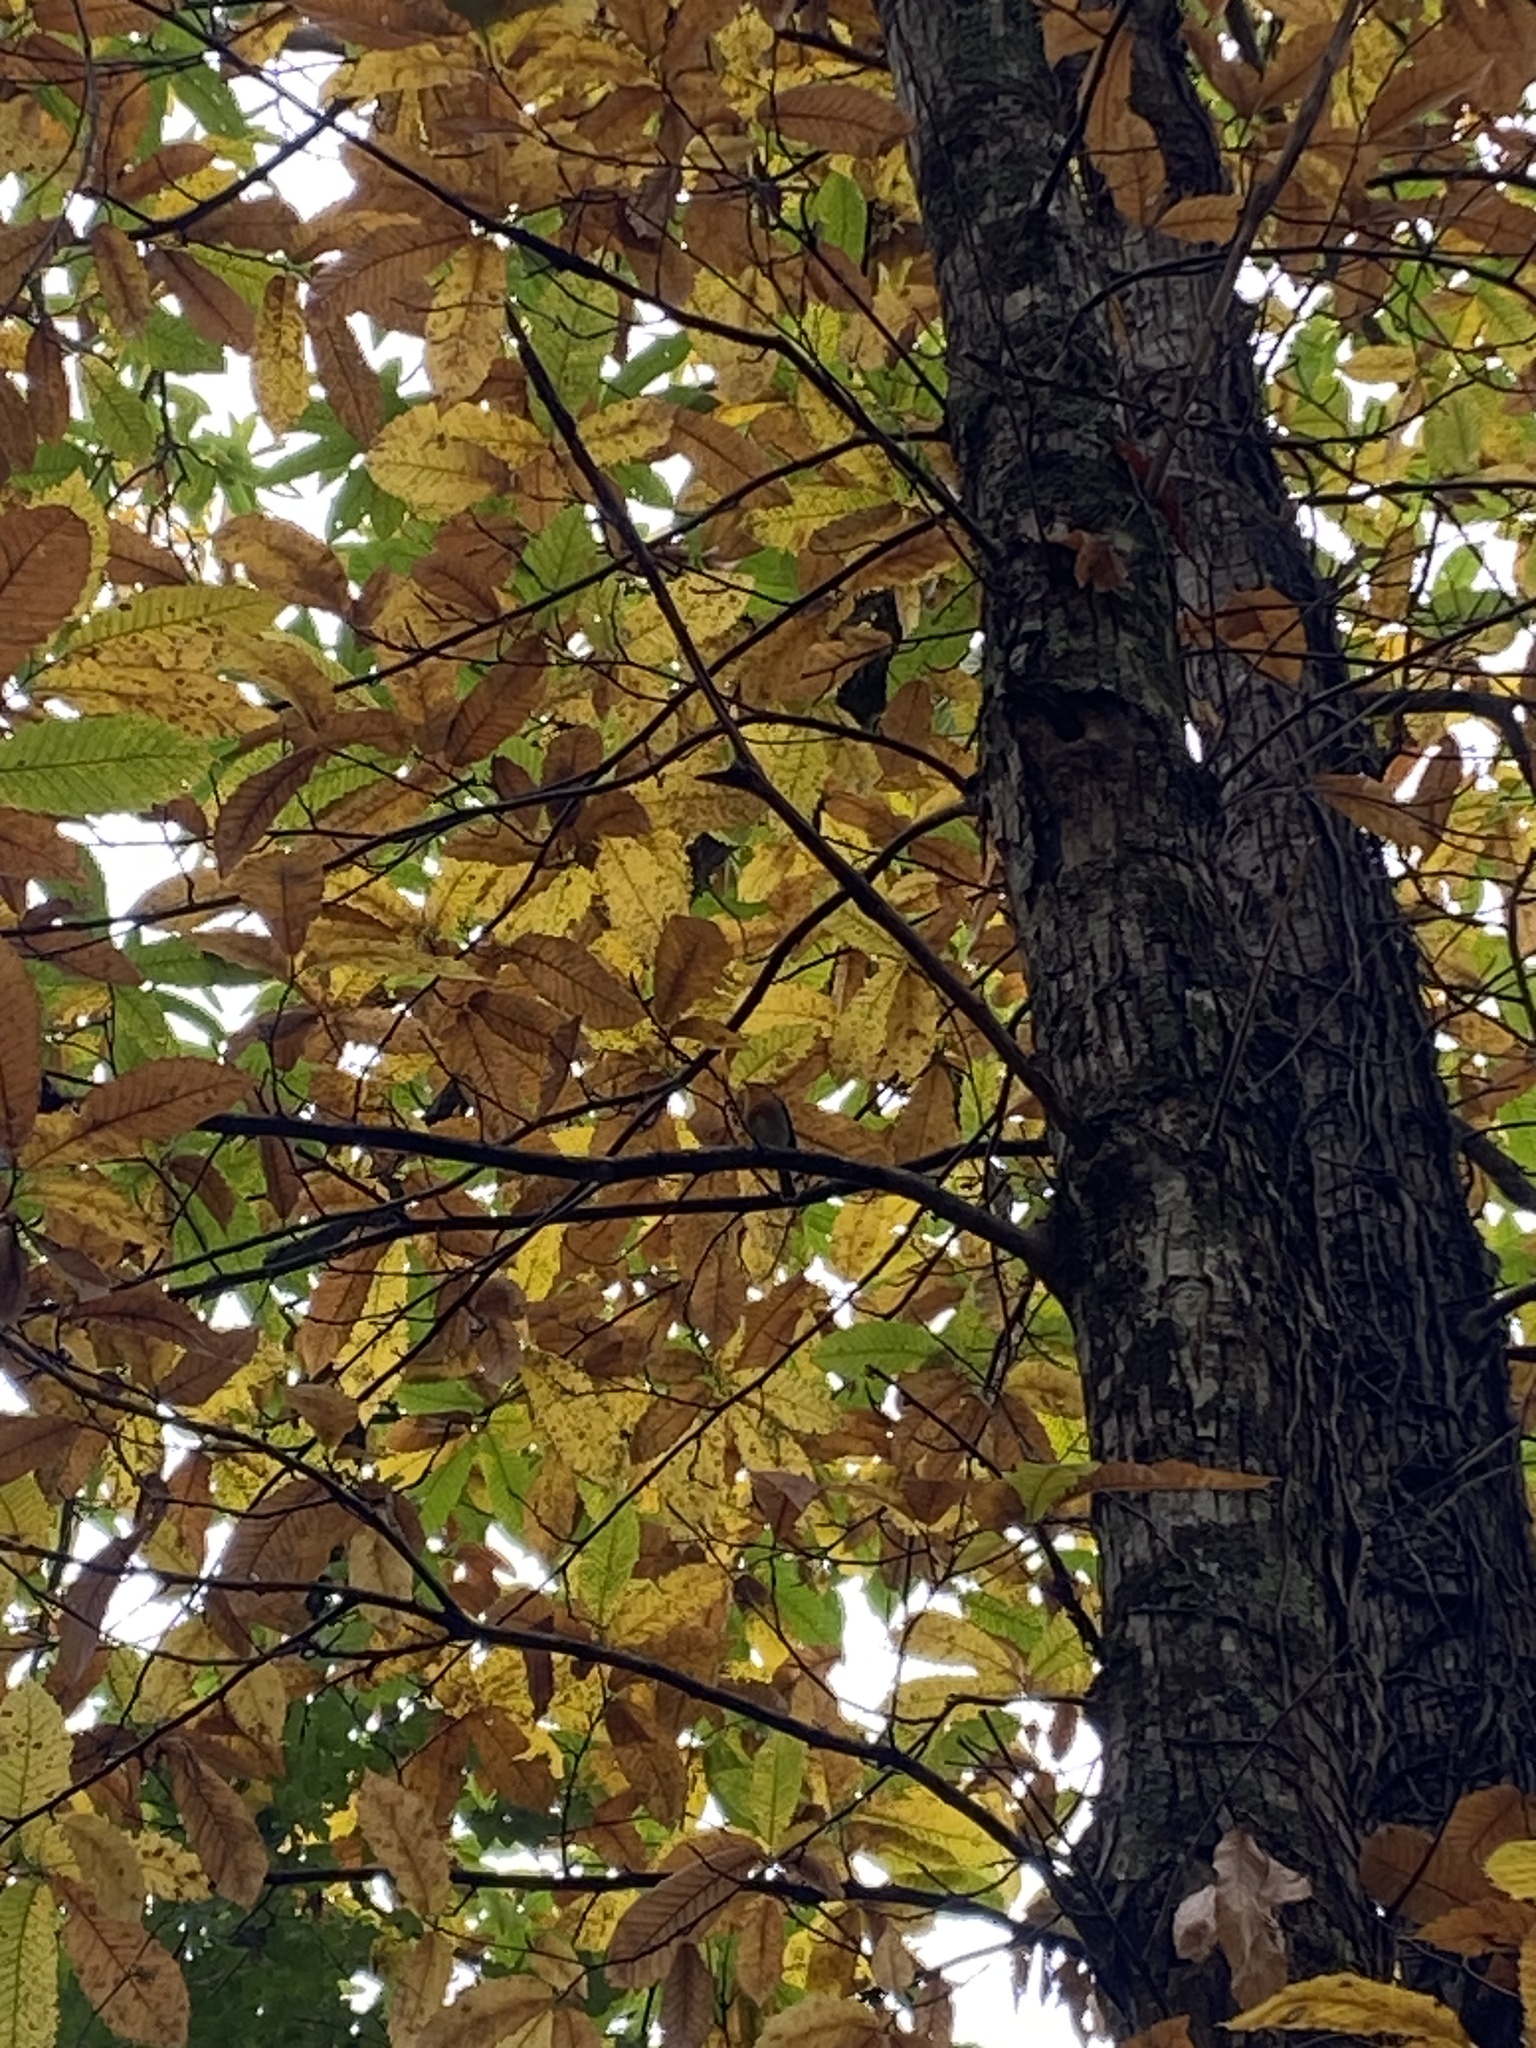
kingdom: Animalia
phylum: Chordata
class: Aves
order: Passeriformes
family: Muscicapidae
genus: Erithacus
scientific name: Erithacus rubecula
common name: European robin
